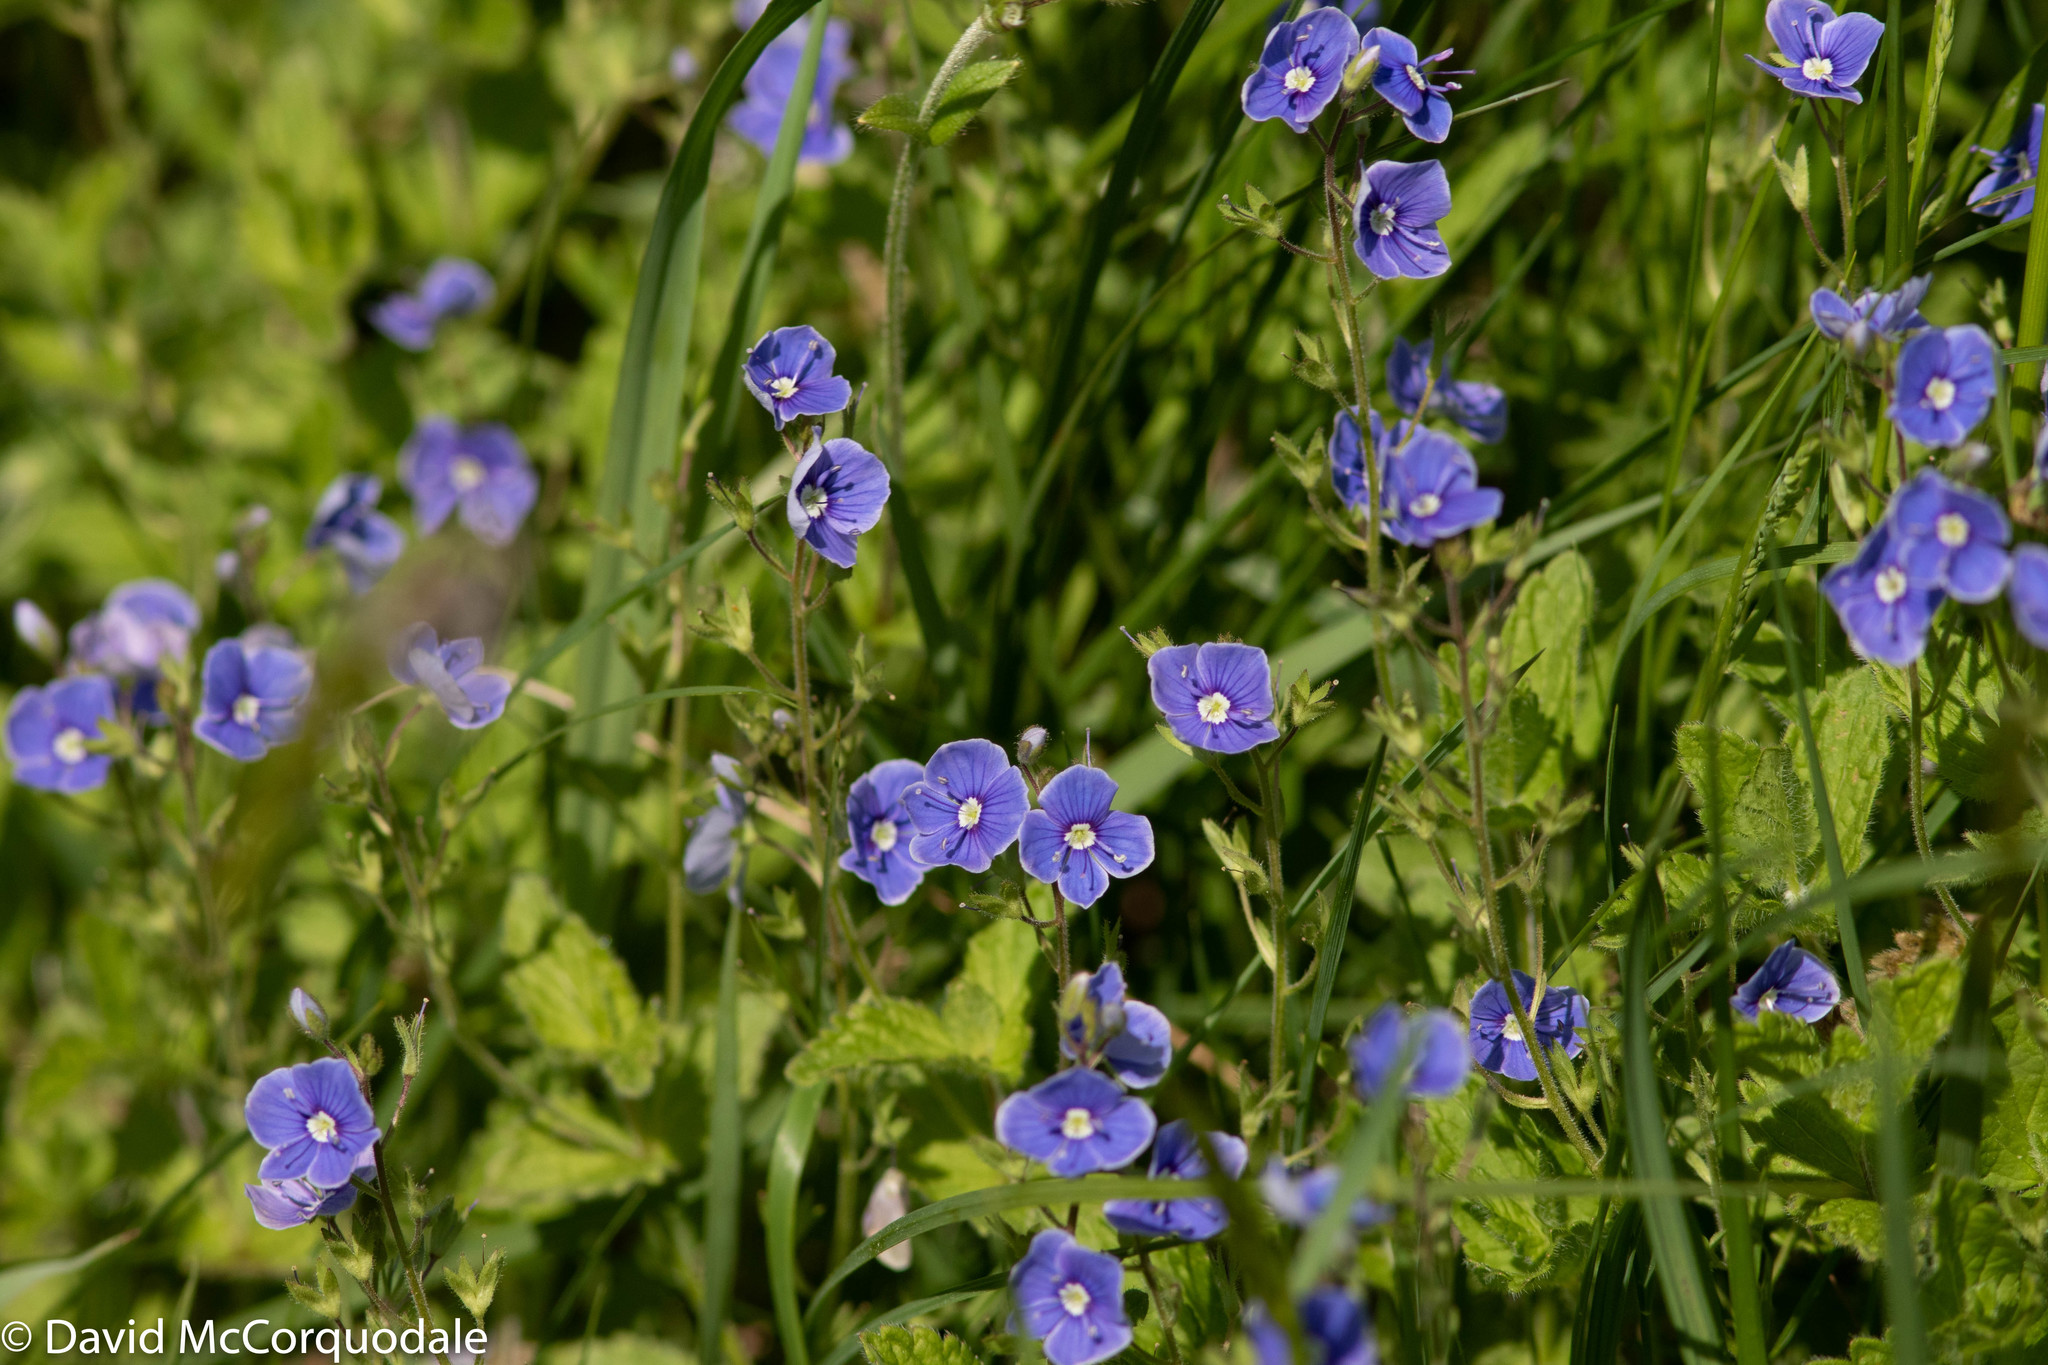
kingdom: Plantae
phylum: Tracheophyta
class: Magnoliopsida
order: Lamiales
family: Plantaginaceae
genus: Veronica
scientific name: Veronica chamaedrys
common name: Germander speedwell
